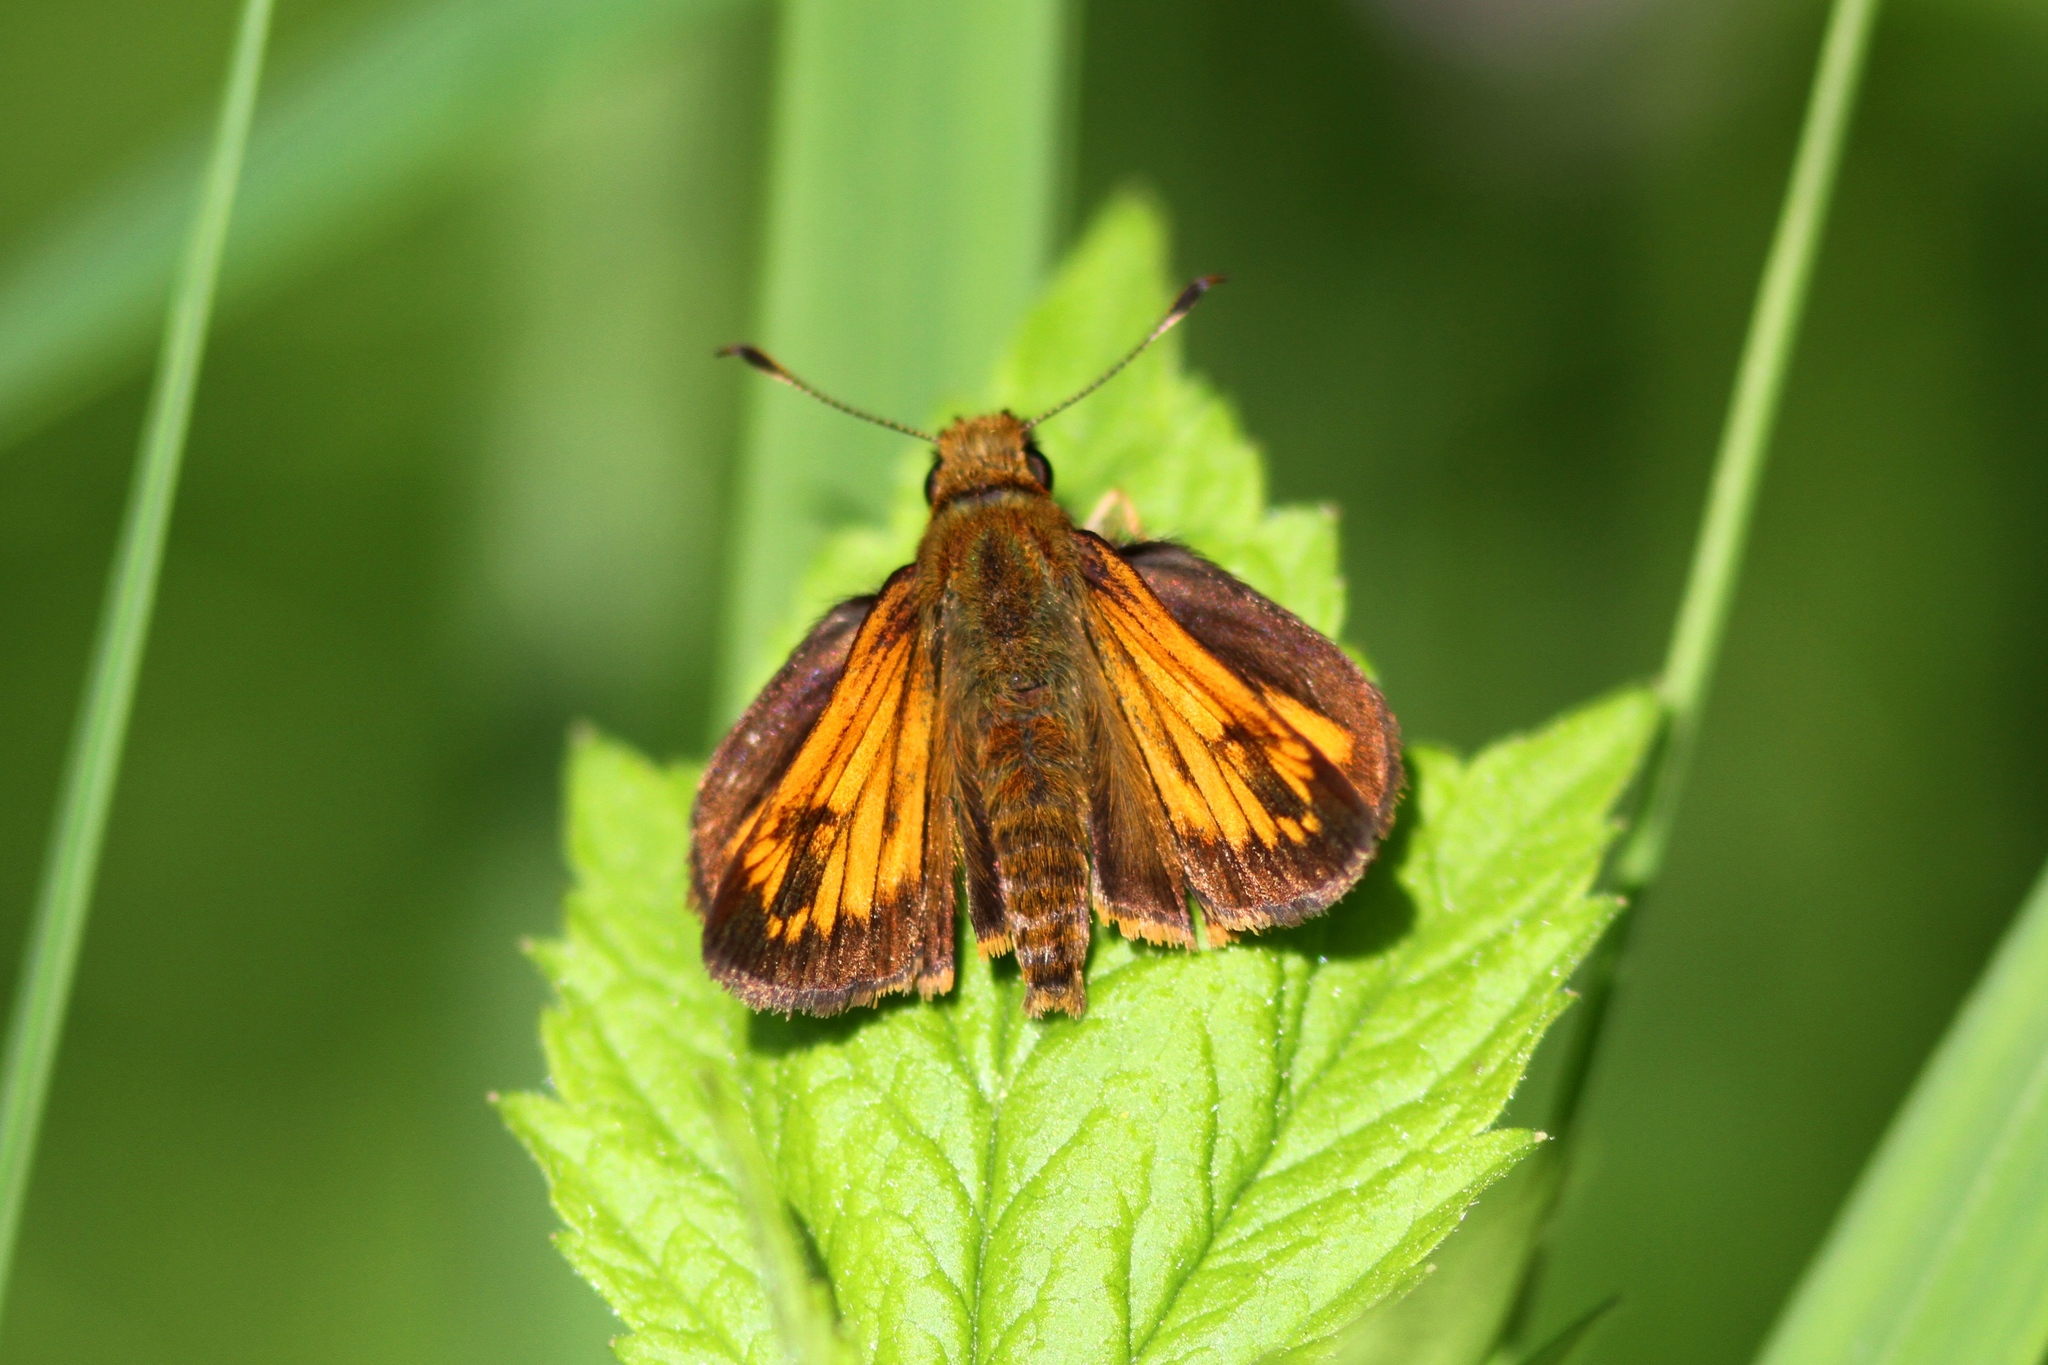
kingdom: Animalia
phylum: Arthropoda
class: Insecta
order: Lepidoptera
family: Hesperiidae
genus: Lon
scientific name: Lon hobomok
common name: Hobomok skipper
